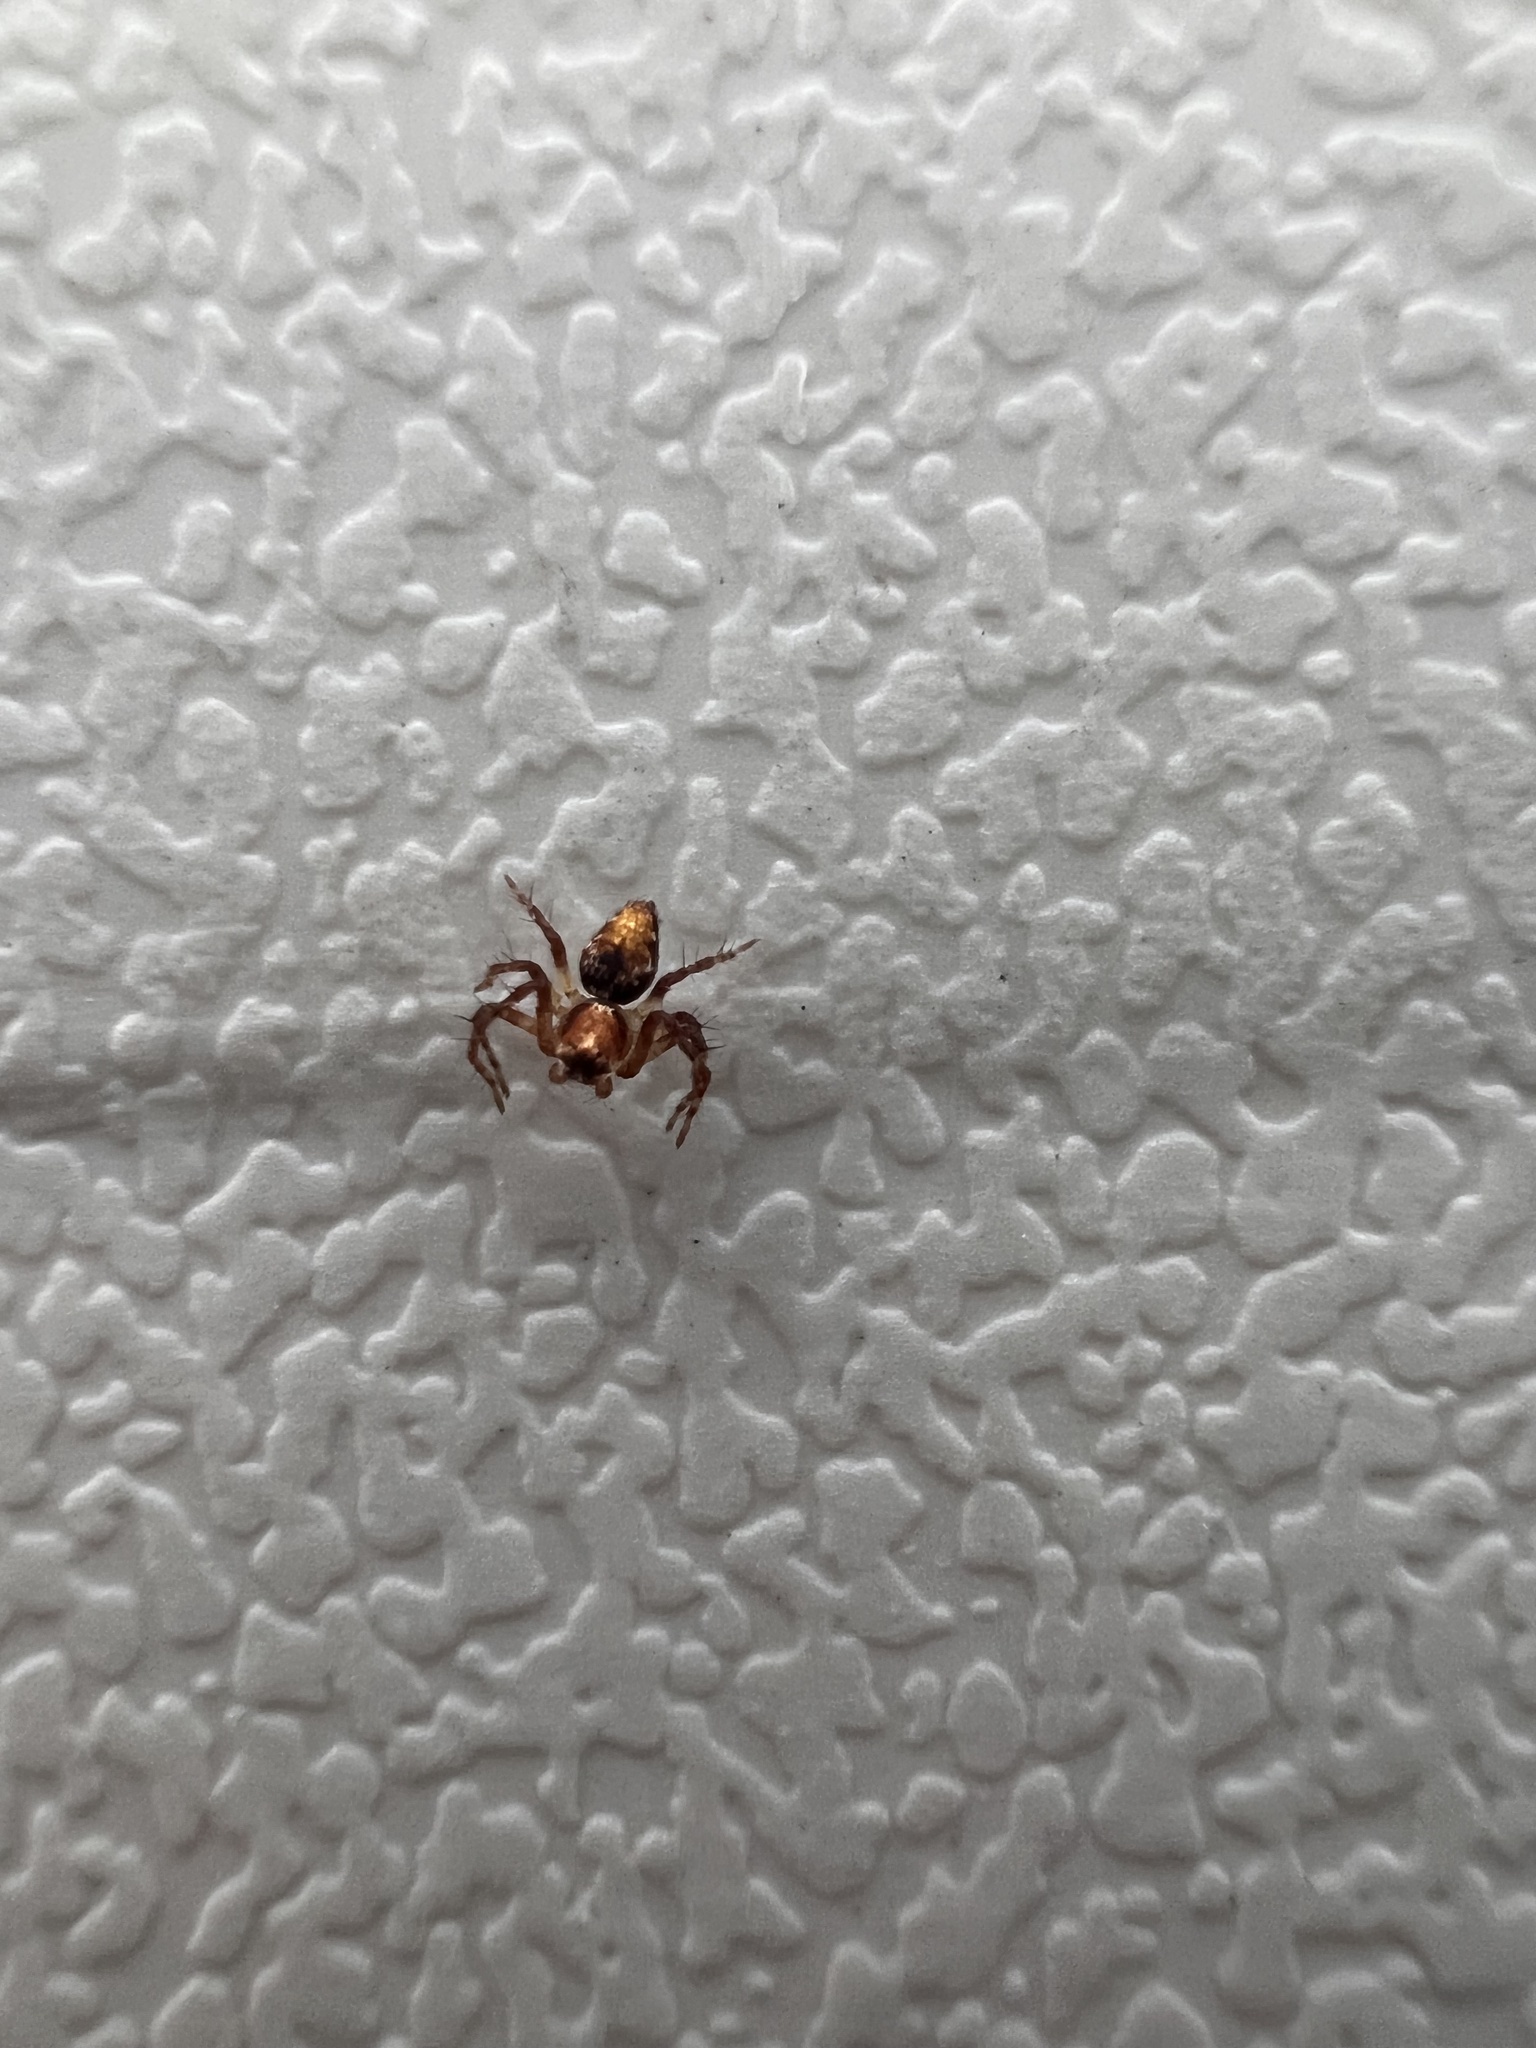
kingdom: Animalia
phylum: Arthropoda
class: Arachnida
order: Araneae
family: Oxyopidae
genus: Oxyopes
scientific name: Oxyopes scalaris
